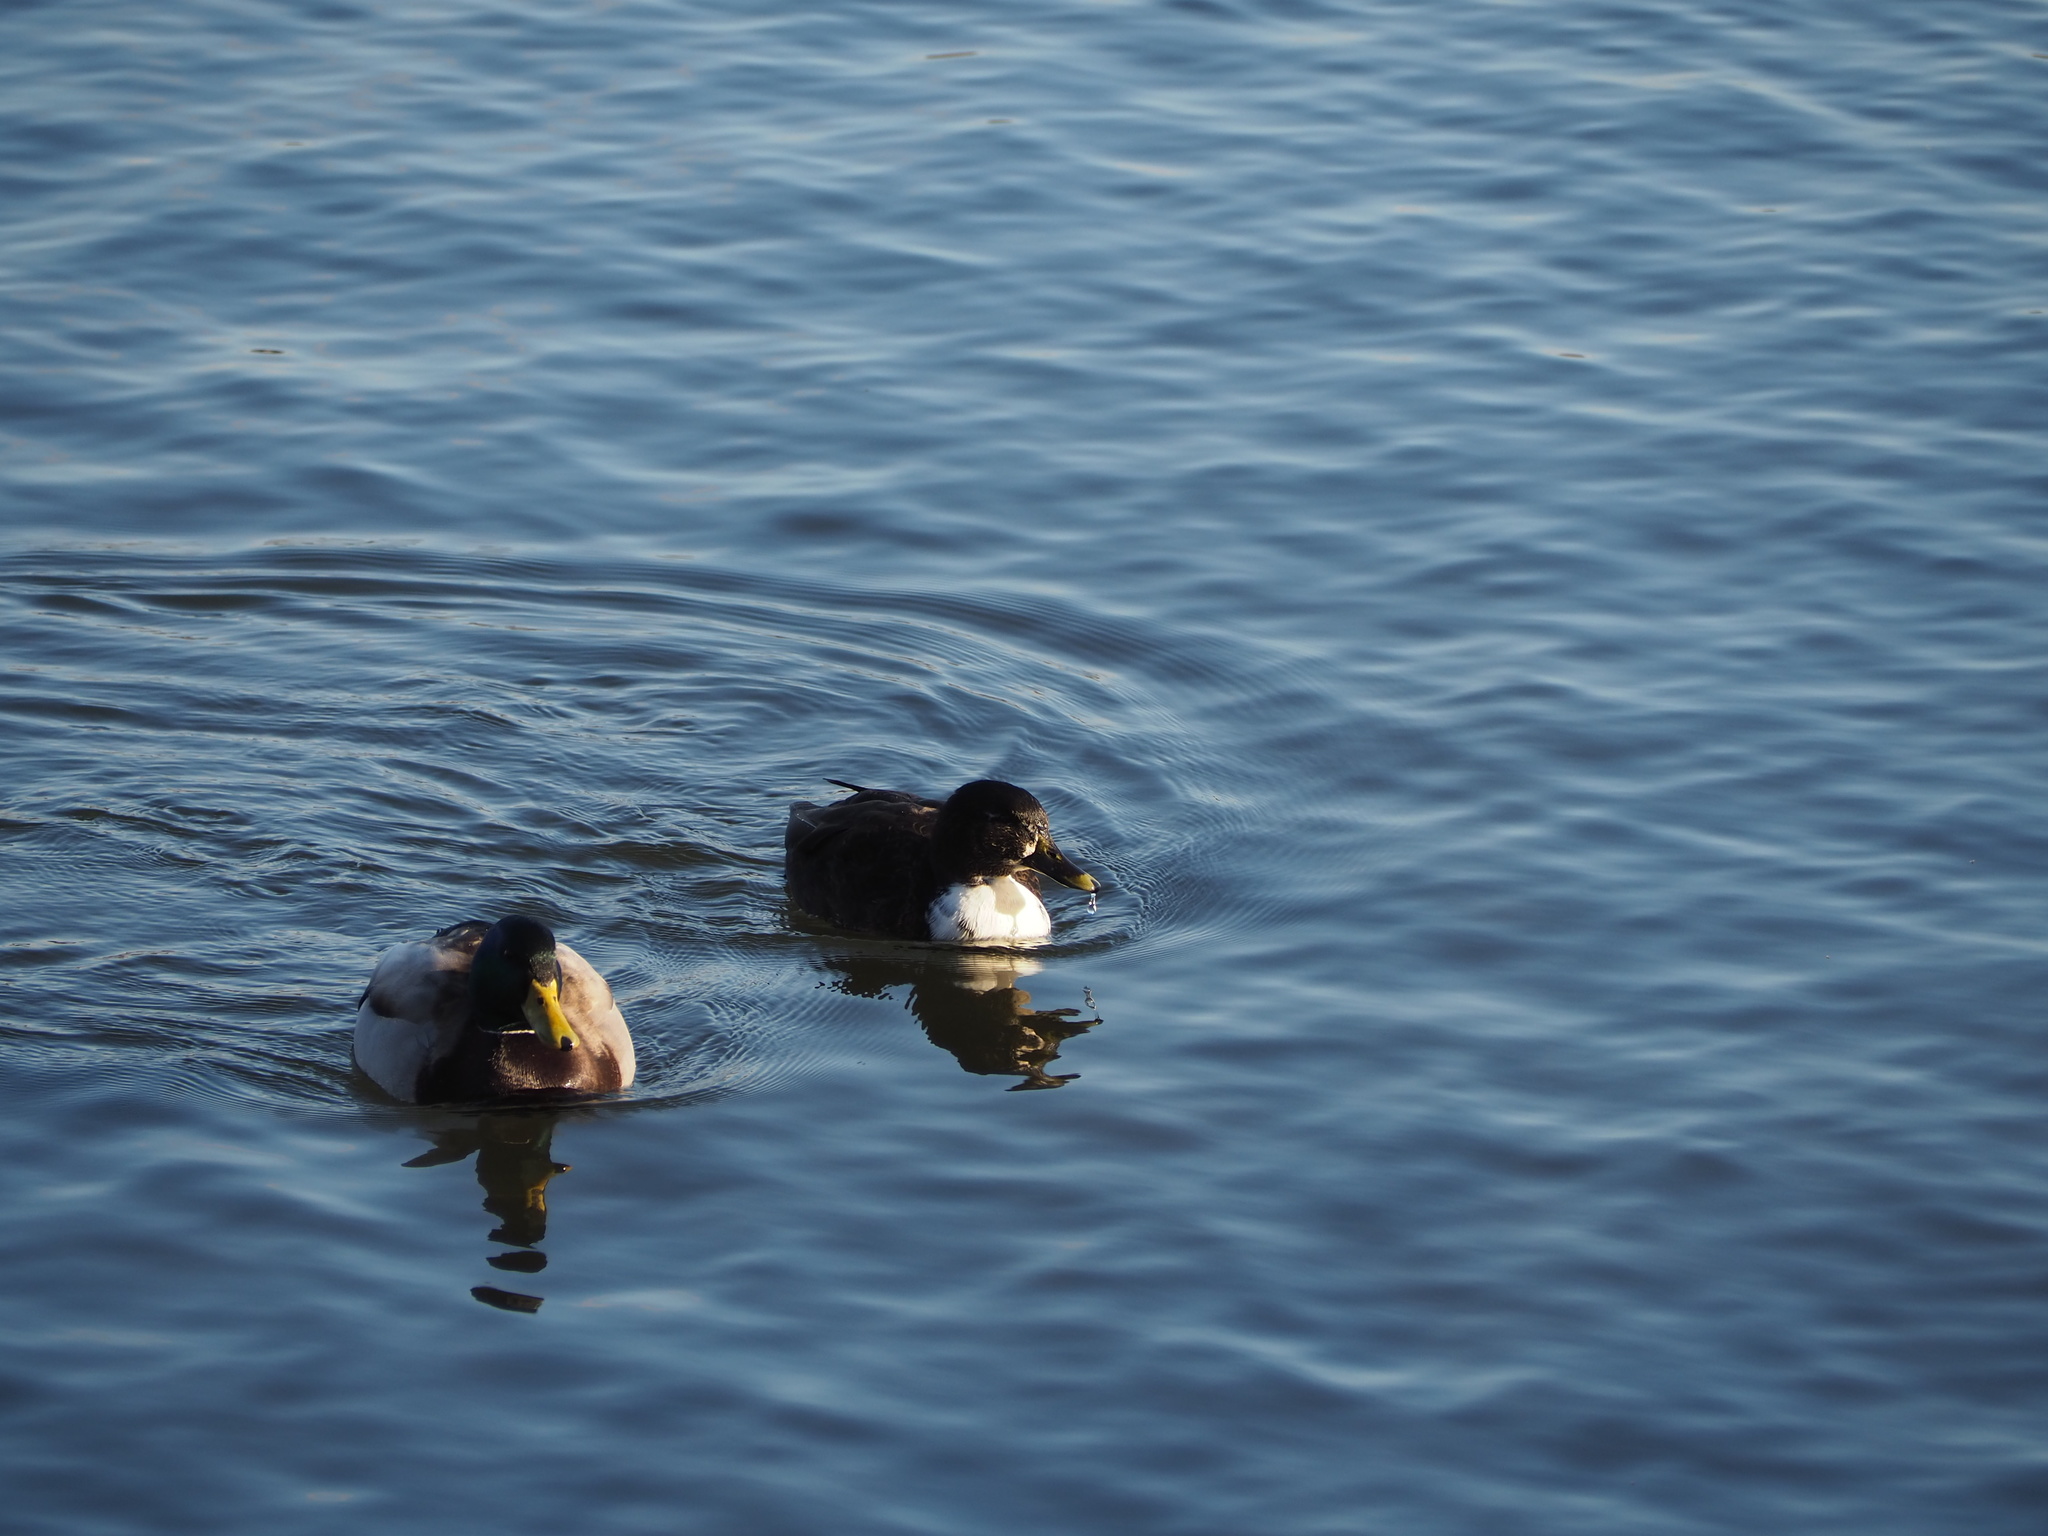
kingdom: Animalia
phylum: Chordata
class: Aves
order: Anseriformes
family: Anatidae
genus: Anas
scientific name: Anas platyrhynchos
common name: Mallard
